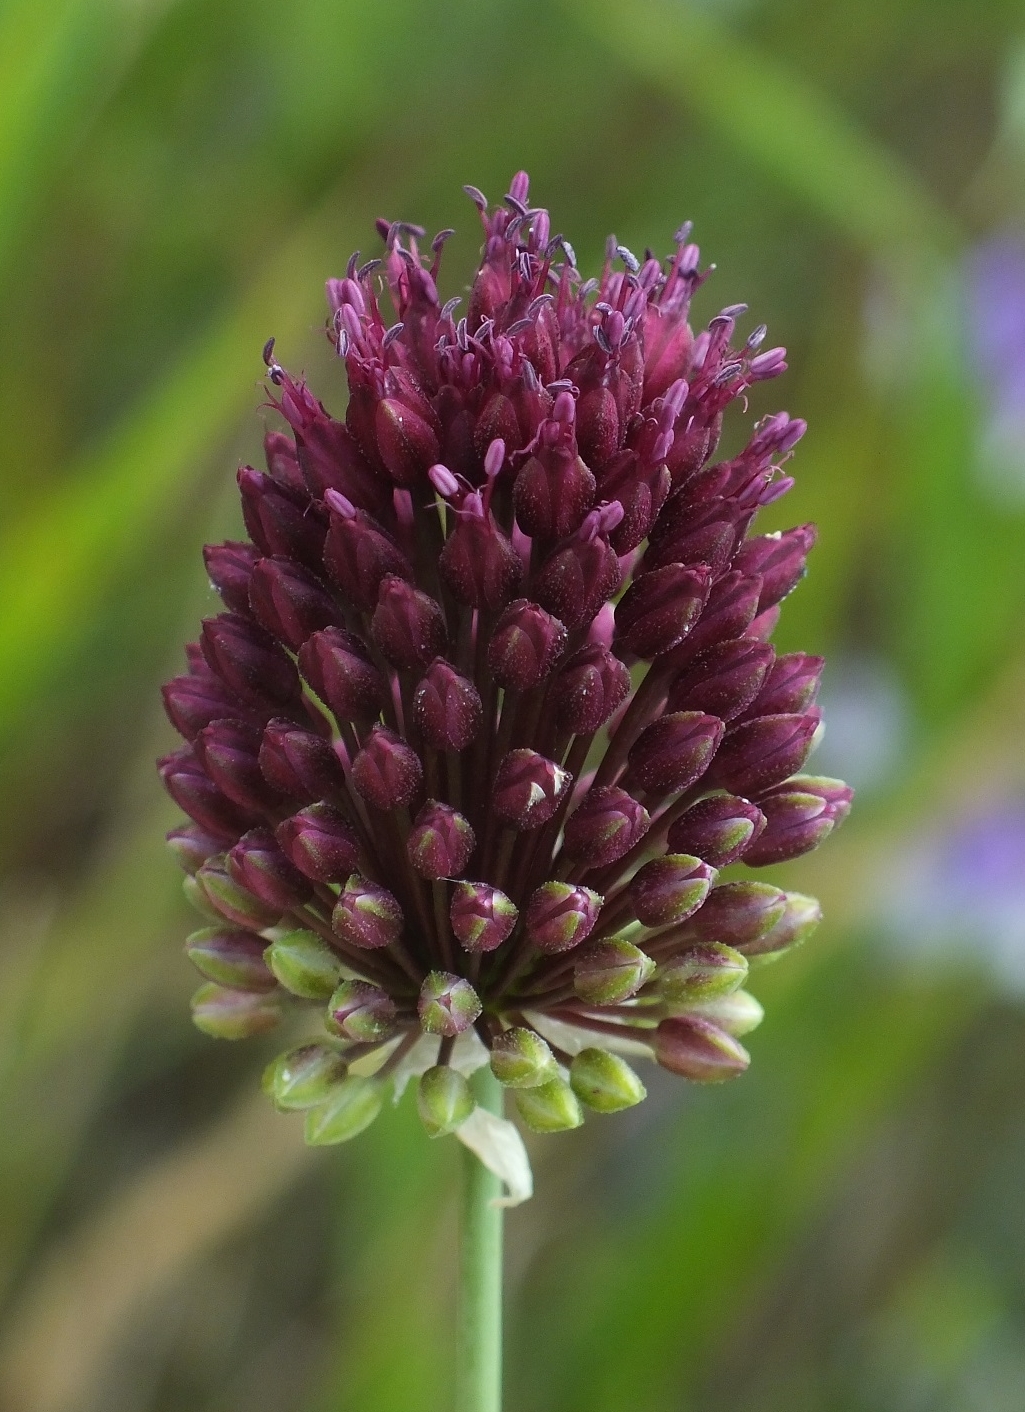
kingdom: Plantae
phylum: Tracheophyta
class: Liliopsida
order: Asparagales
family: Amaryllidaceae
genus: Allium
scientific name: Allium sphaerocephalon
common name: Round-headed leek
